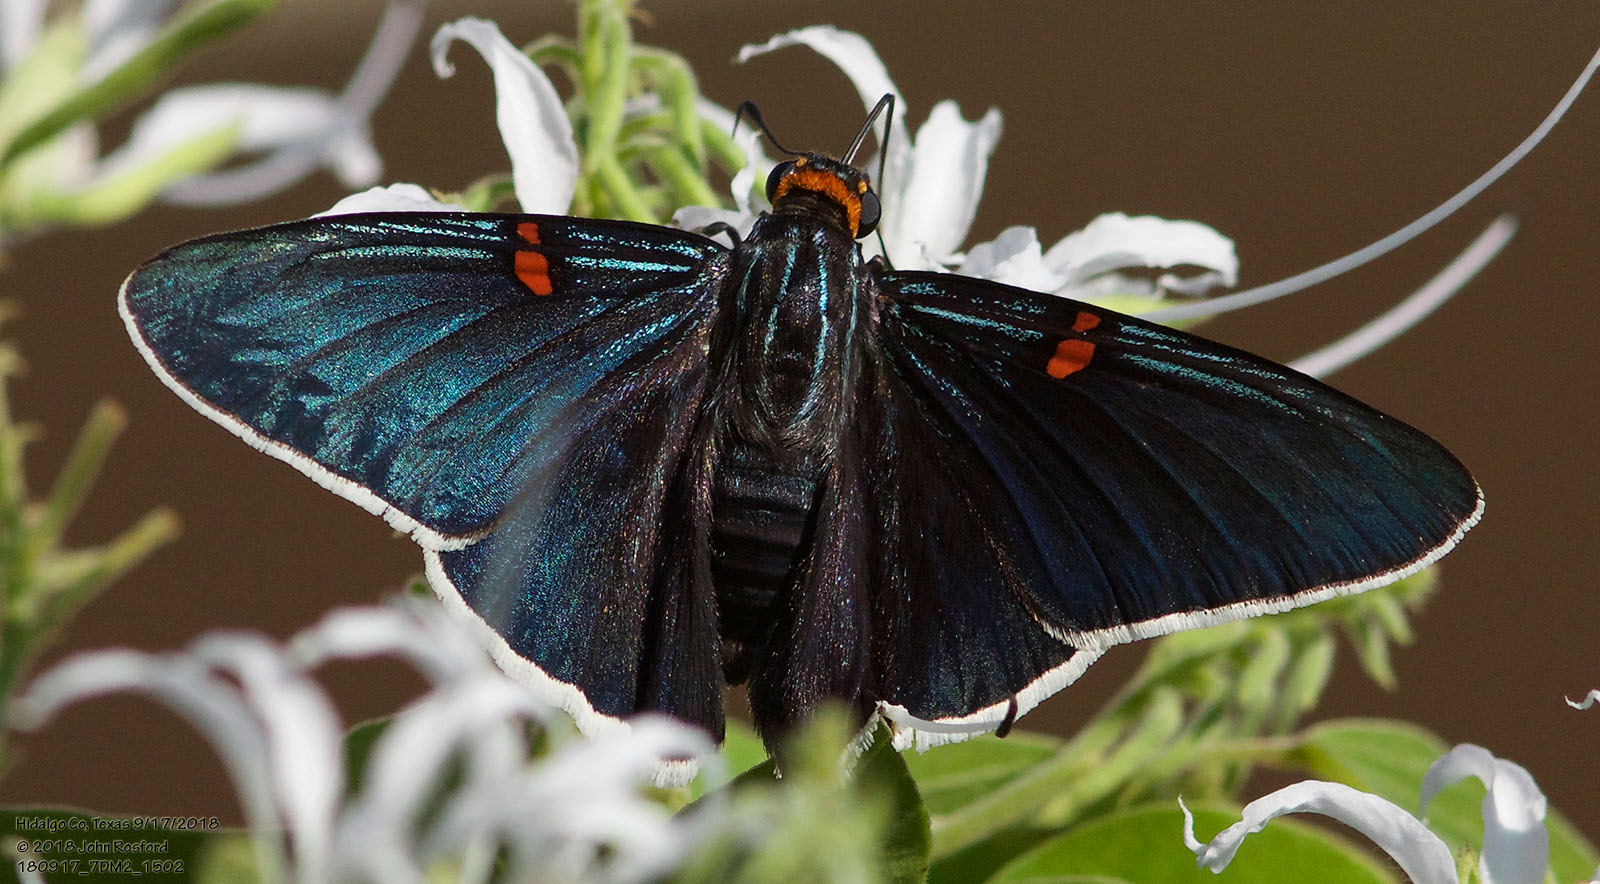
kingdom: Animalia
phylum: Arthropoda
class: Insecta
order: Lepidoptera
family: Hesperiidae
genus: Phocides
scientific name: Phocides lilea
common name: Guava skipper
